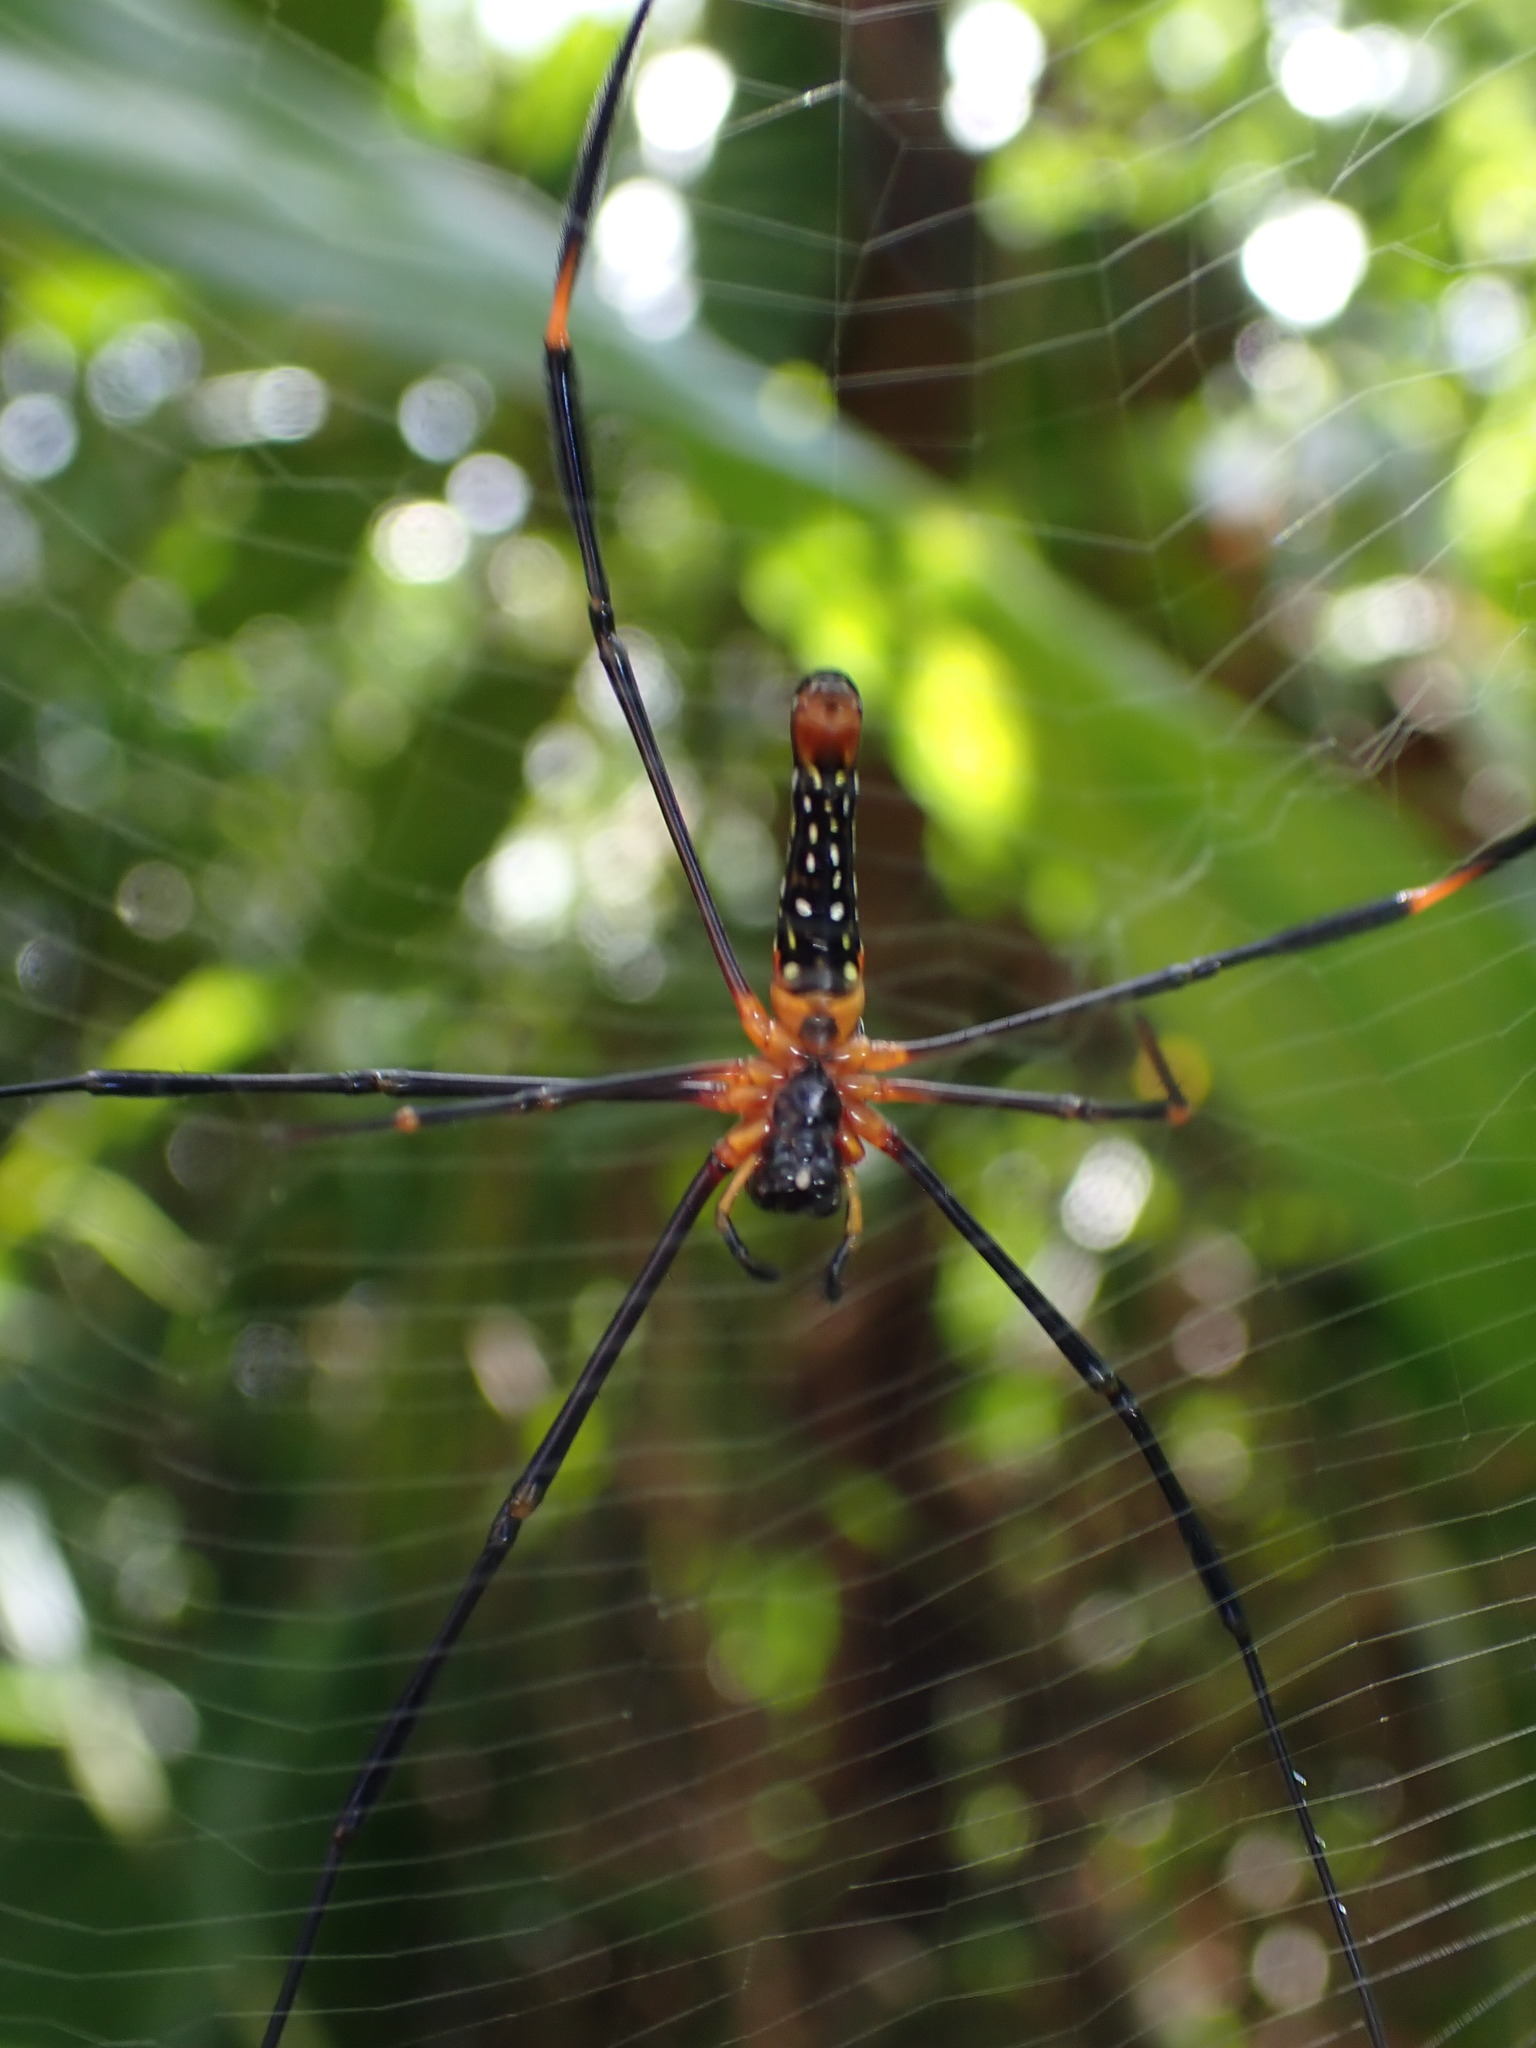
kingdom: Animalia
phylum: Arthropoda
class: Arachnida
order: Araneae
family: Araneidae
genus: Nephila
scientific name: Nephila pilipes
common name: Giant golden orb weaver
